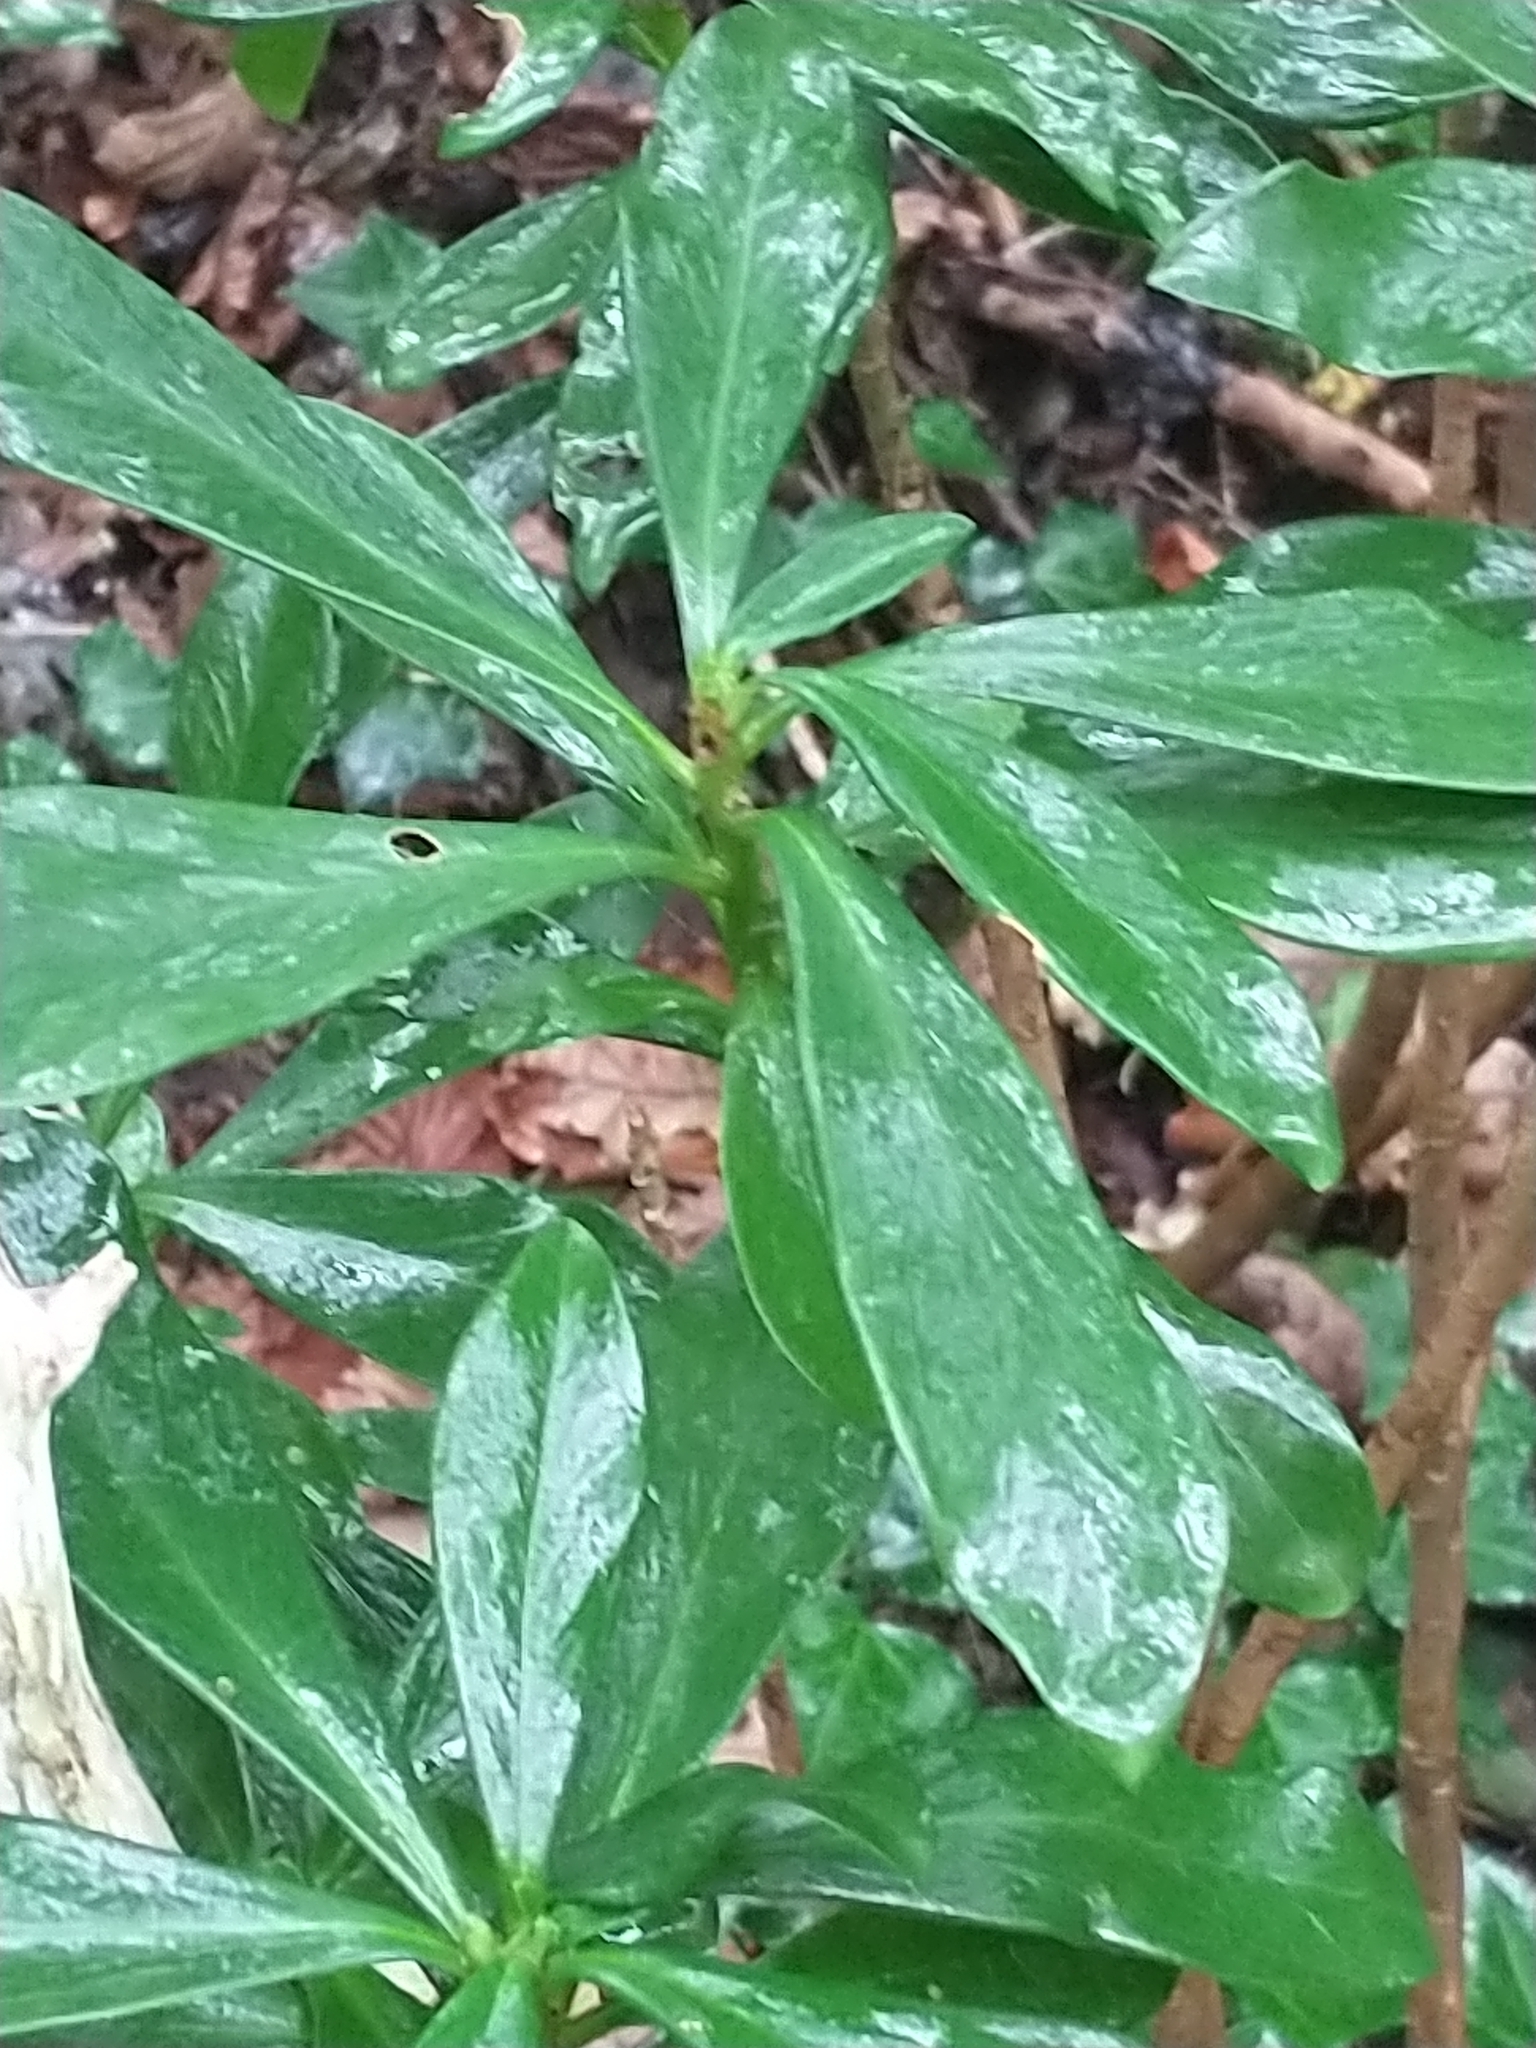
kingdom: Plantae
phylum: Tracheophyta
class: Magnoliopsida
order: Malvales
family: Thymelaeaceae
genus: Daphne
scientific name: Daphne laureola
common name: Spurge-laurel
